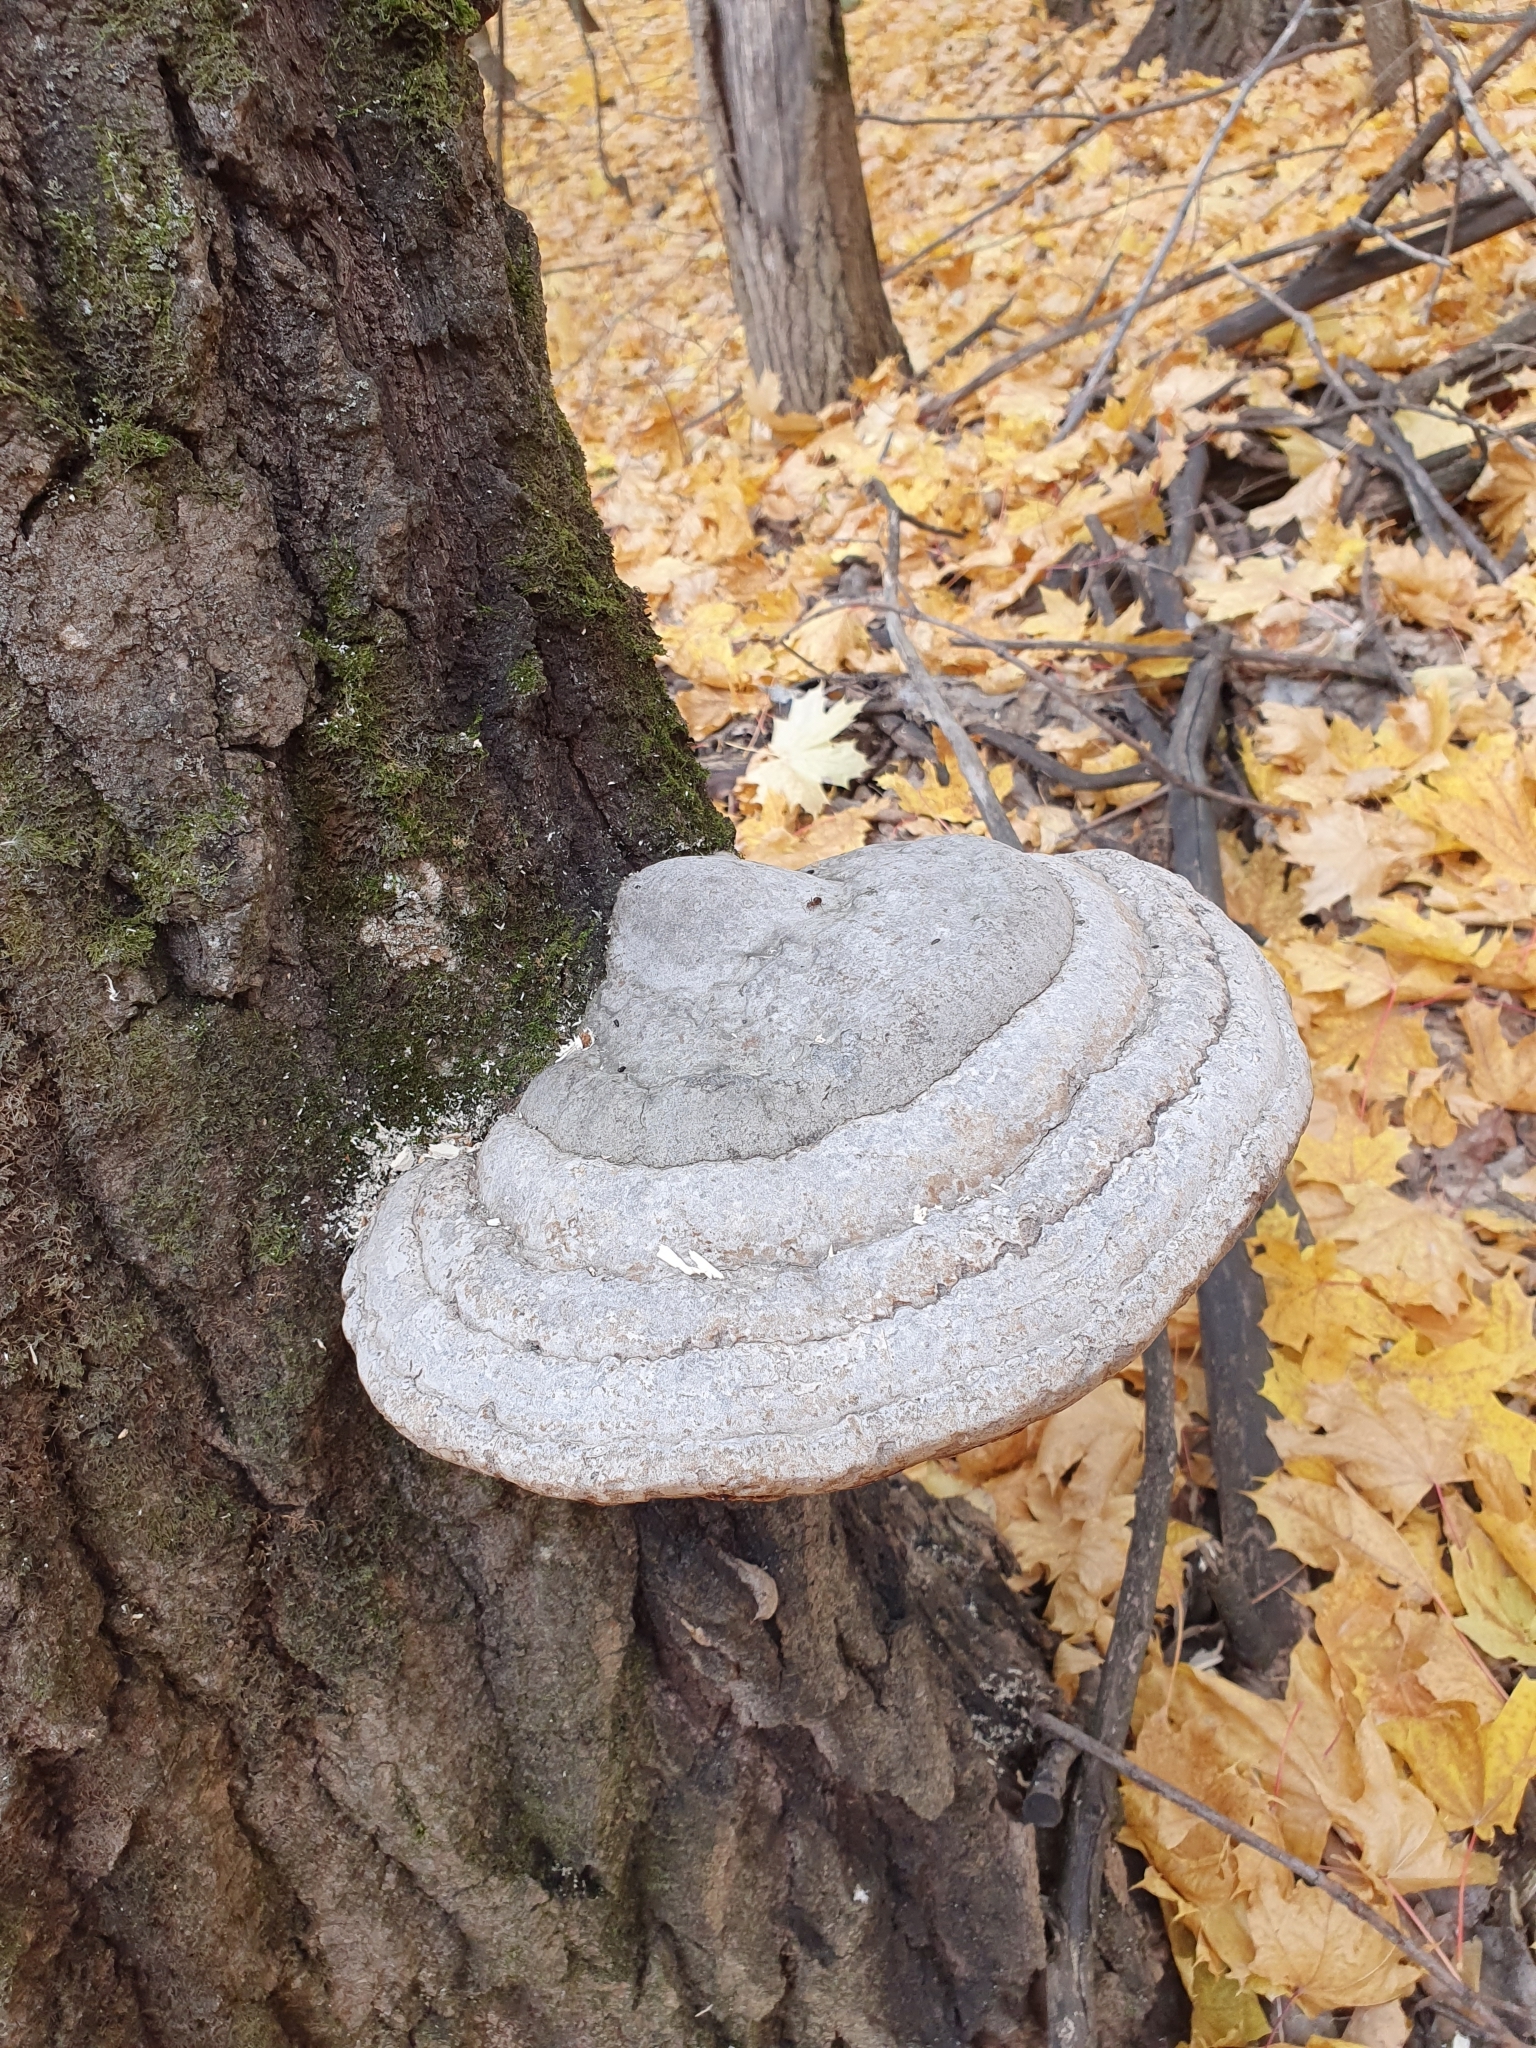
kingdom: Fungi
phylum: Basidiomycota
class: Agaricomycetes
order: Polyporales
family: Polyporaceae
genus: Fomes
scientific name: Fomes fomentarius
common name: Hoof fungus
